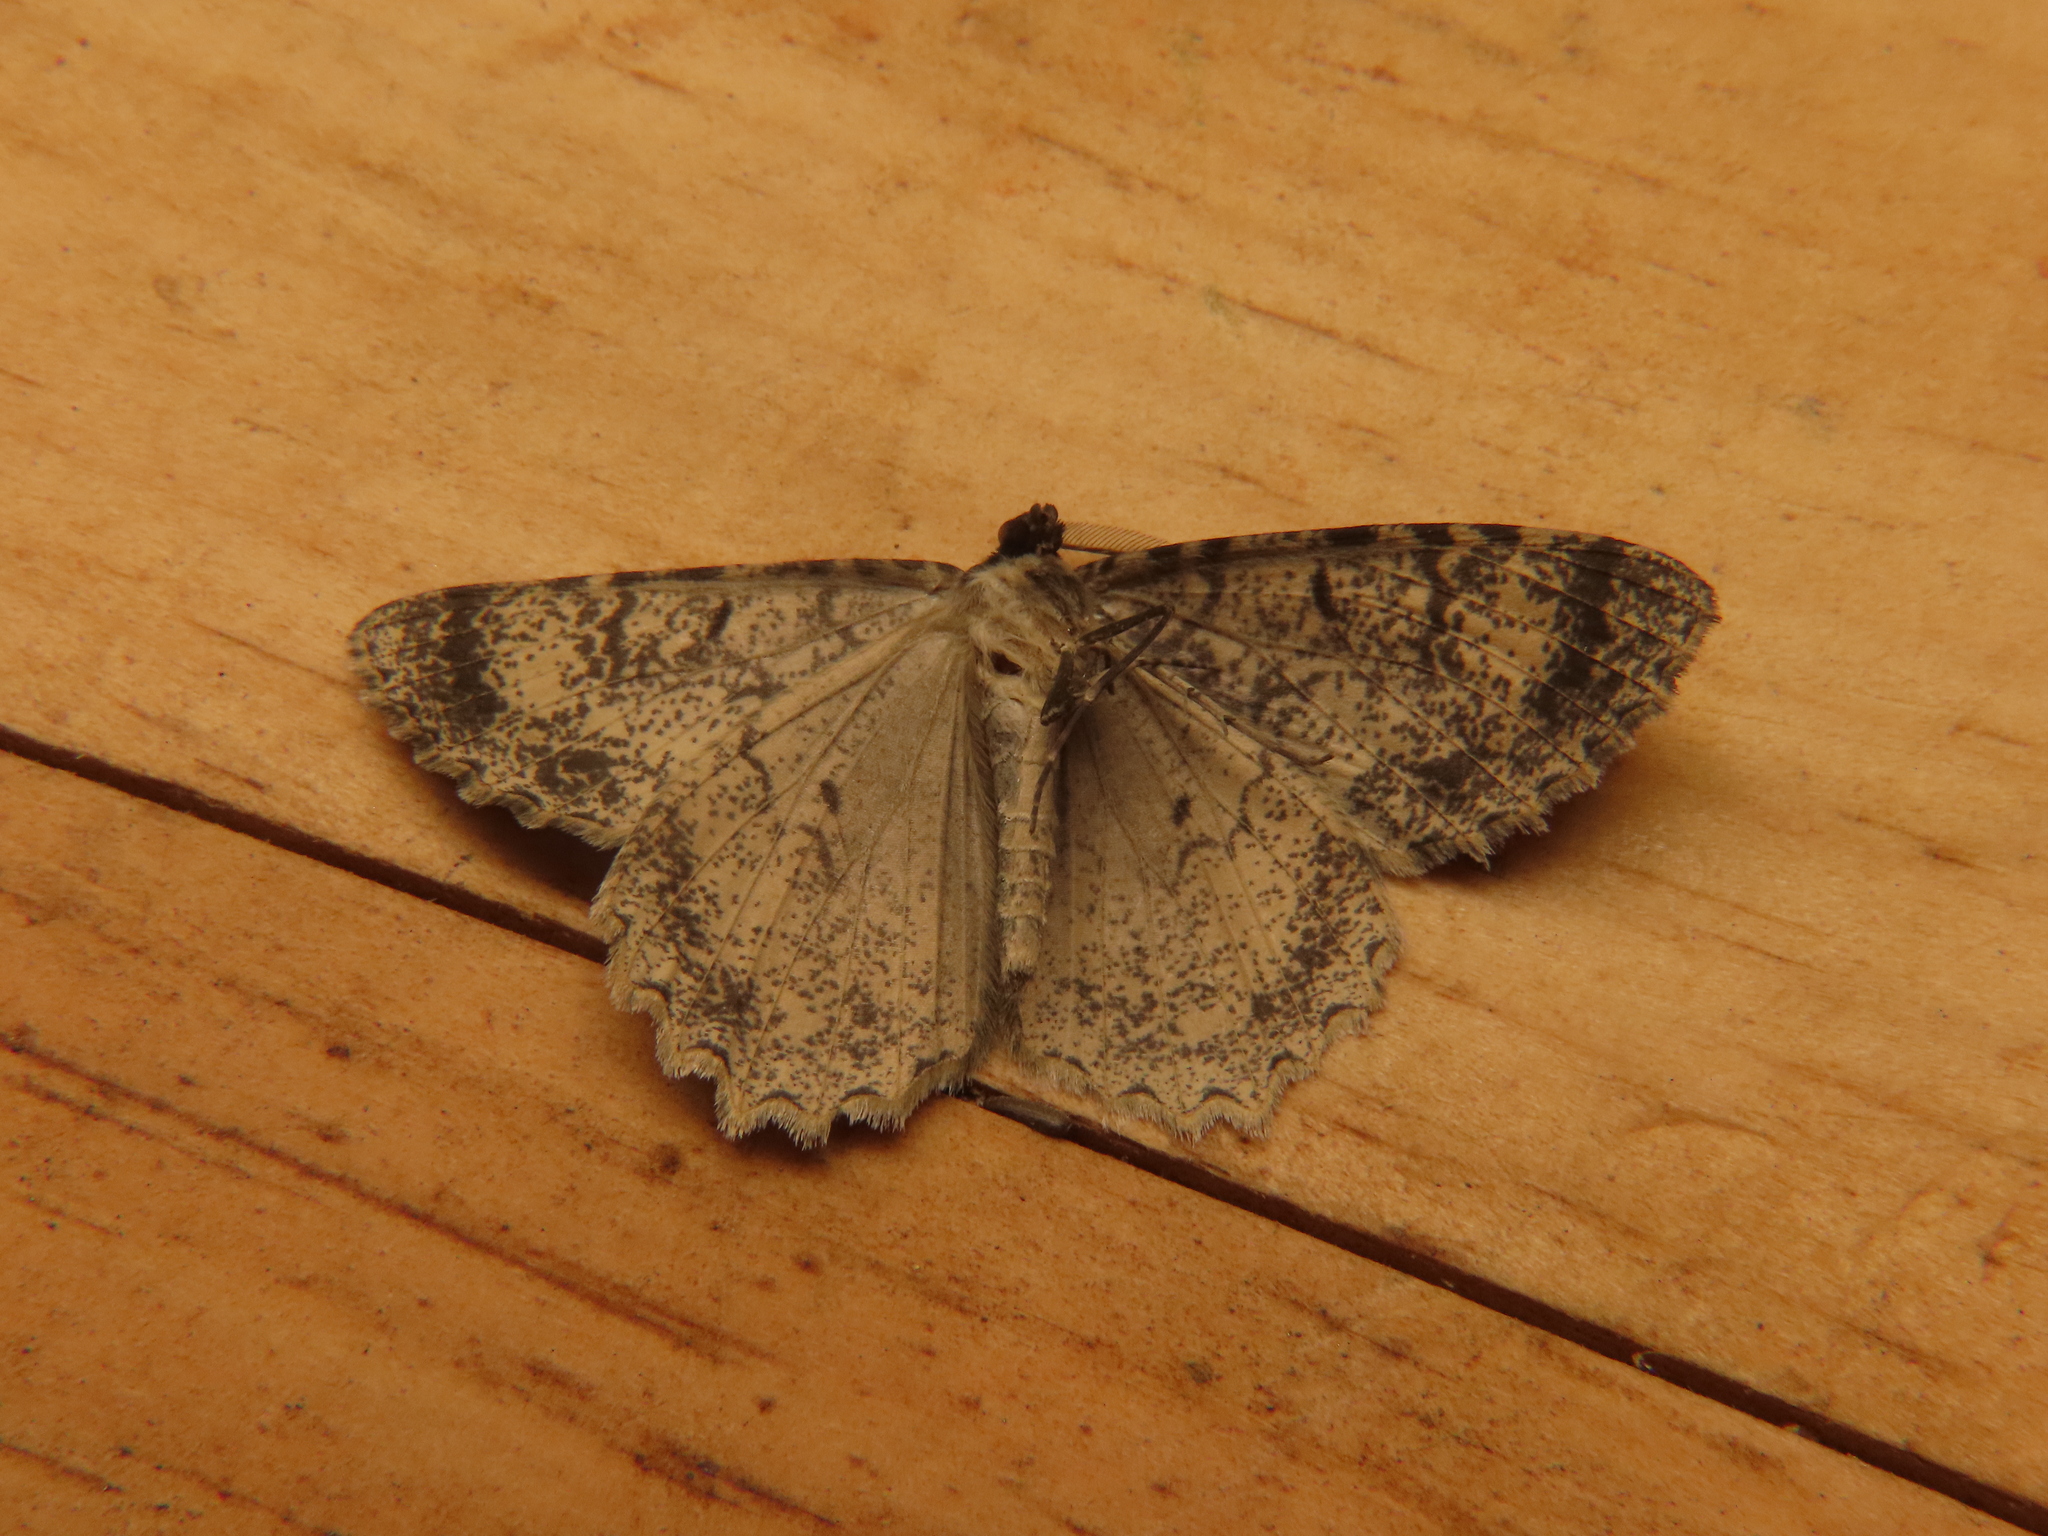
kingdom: Animalia
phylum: Arthropoda
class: Insecta
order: Lepidoptera
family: Geometridae
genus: Epimecis
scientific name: Epimecis hortaria
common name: Tulip-tree beauty
